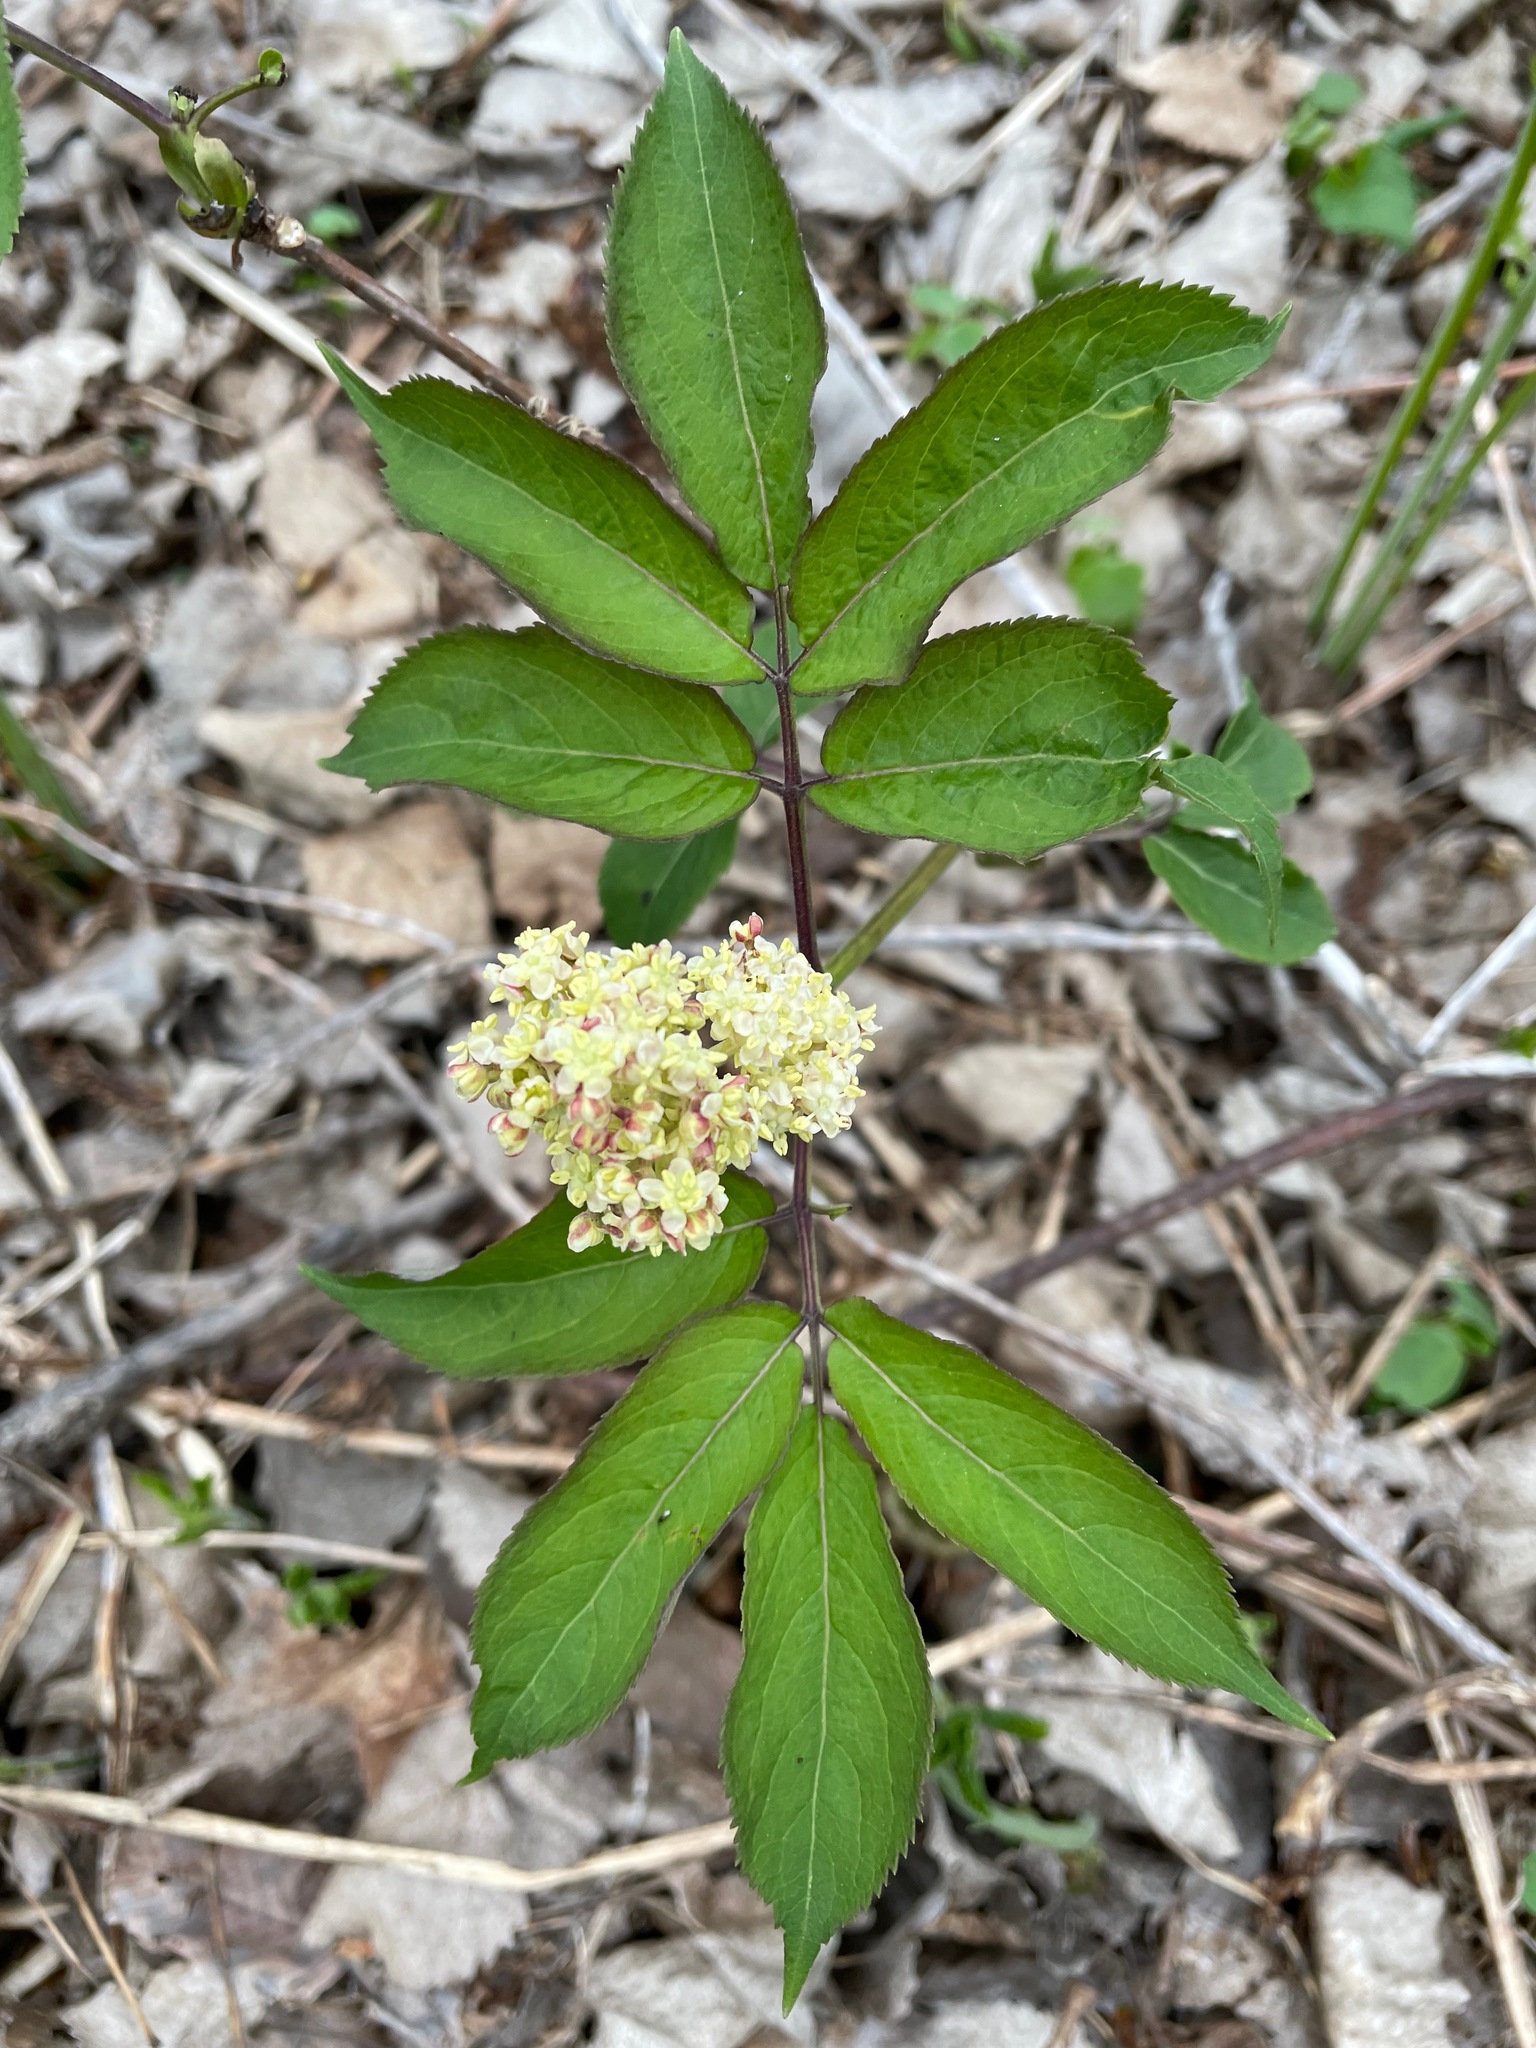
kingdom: Plantae
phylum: Tracheophyta
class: Magnoliopsida
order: Dipsacales
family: Viburnaceae
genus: Sambucus
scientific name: Sambucus racemosa
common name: Red-berried elder
